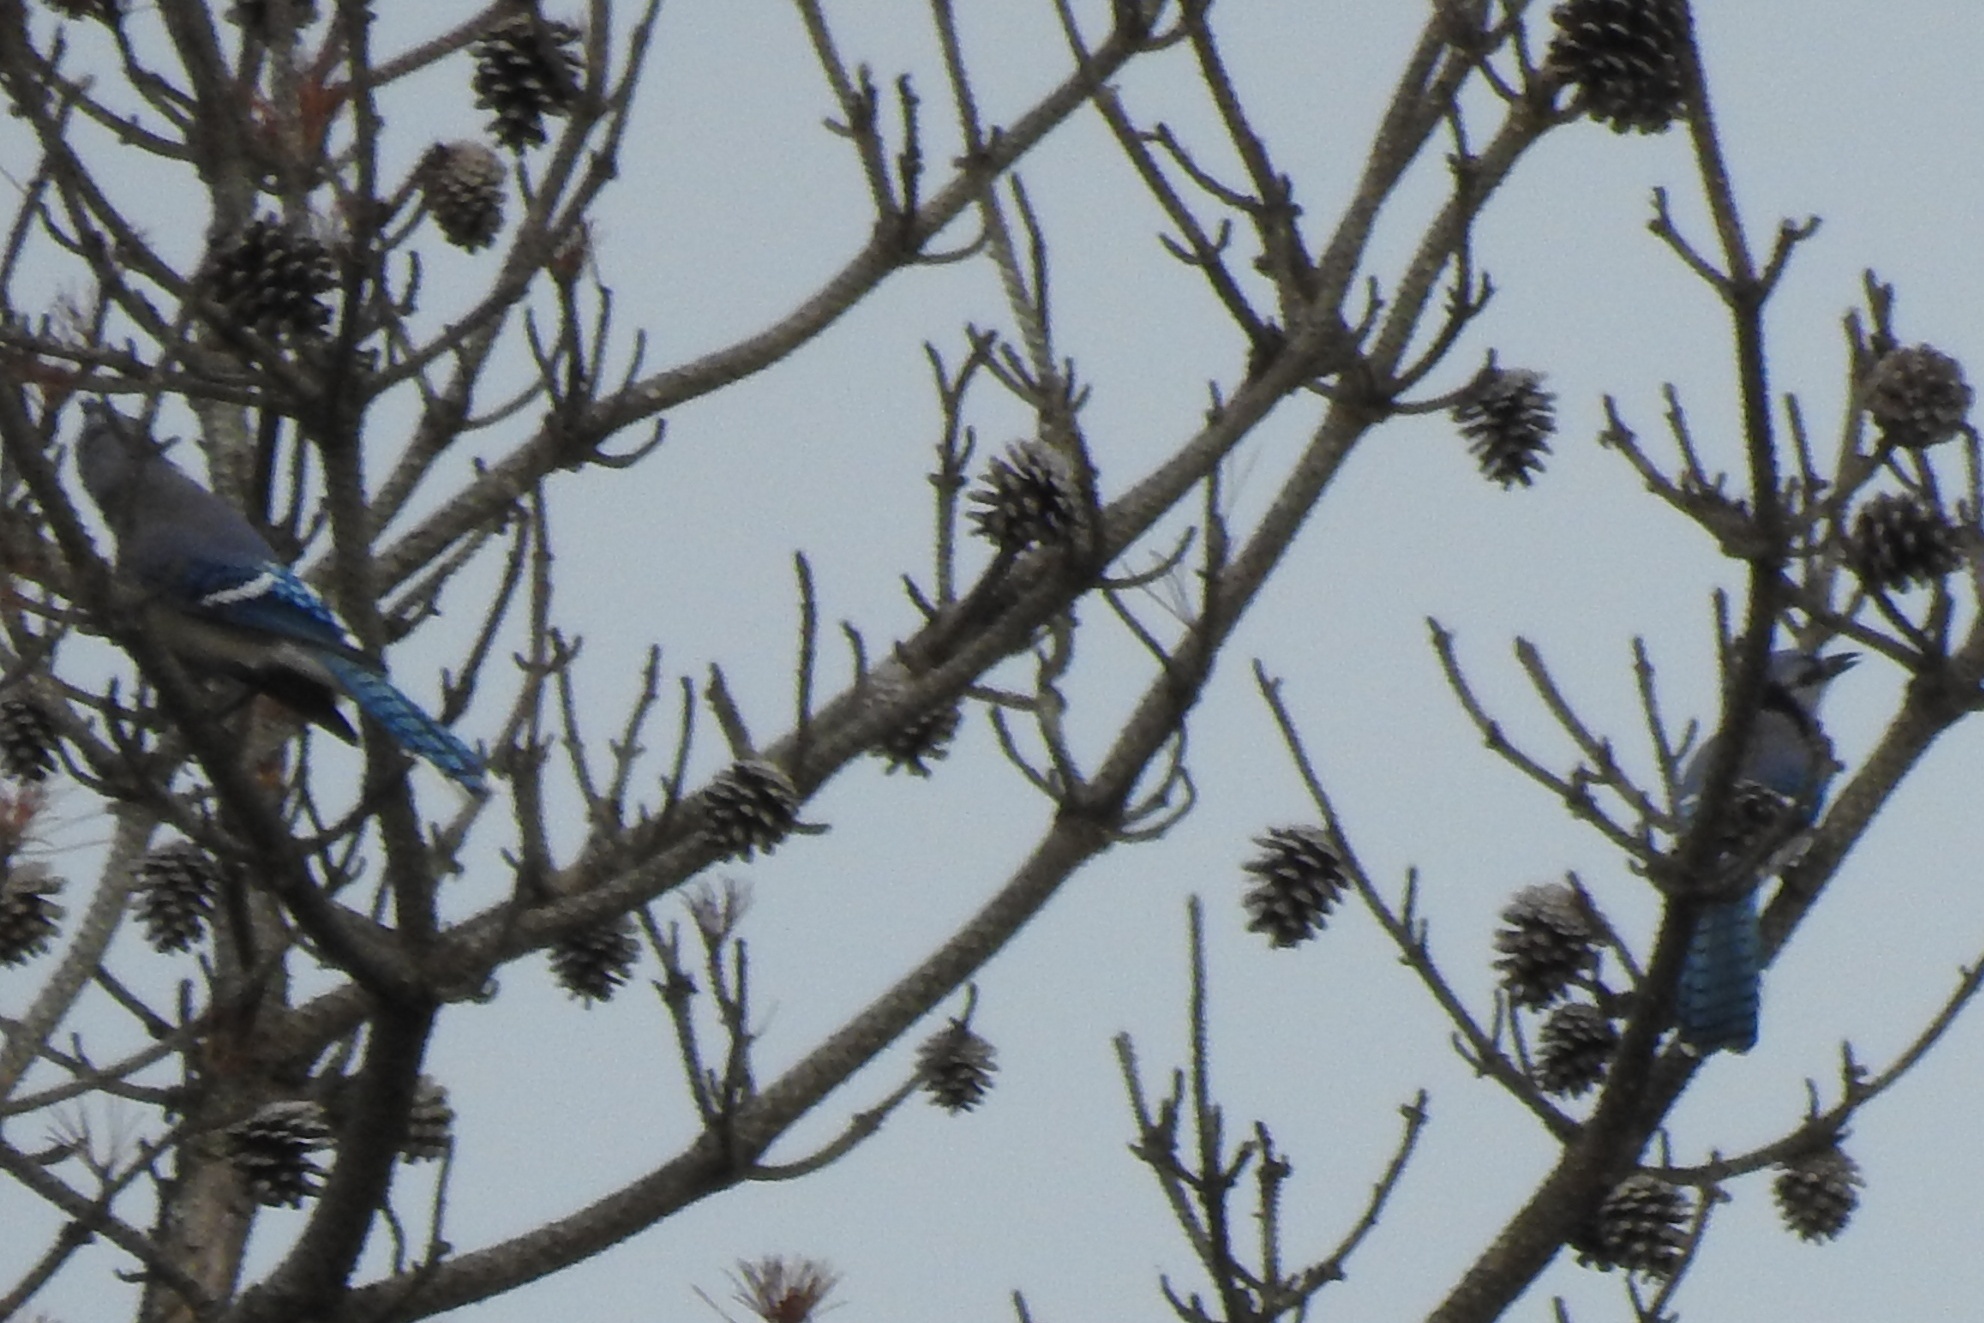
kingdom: Animalia
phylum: Chordata
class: Aves
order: Passeriformes
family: Corvidae
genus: Cyanocitta
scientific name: Cyanocitta cristata
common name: Blue jay
